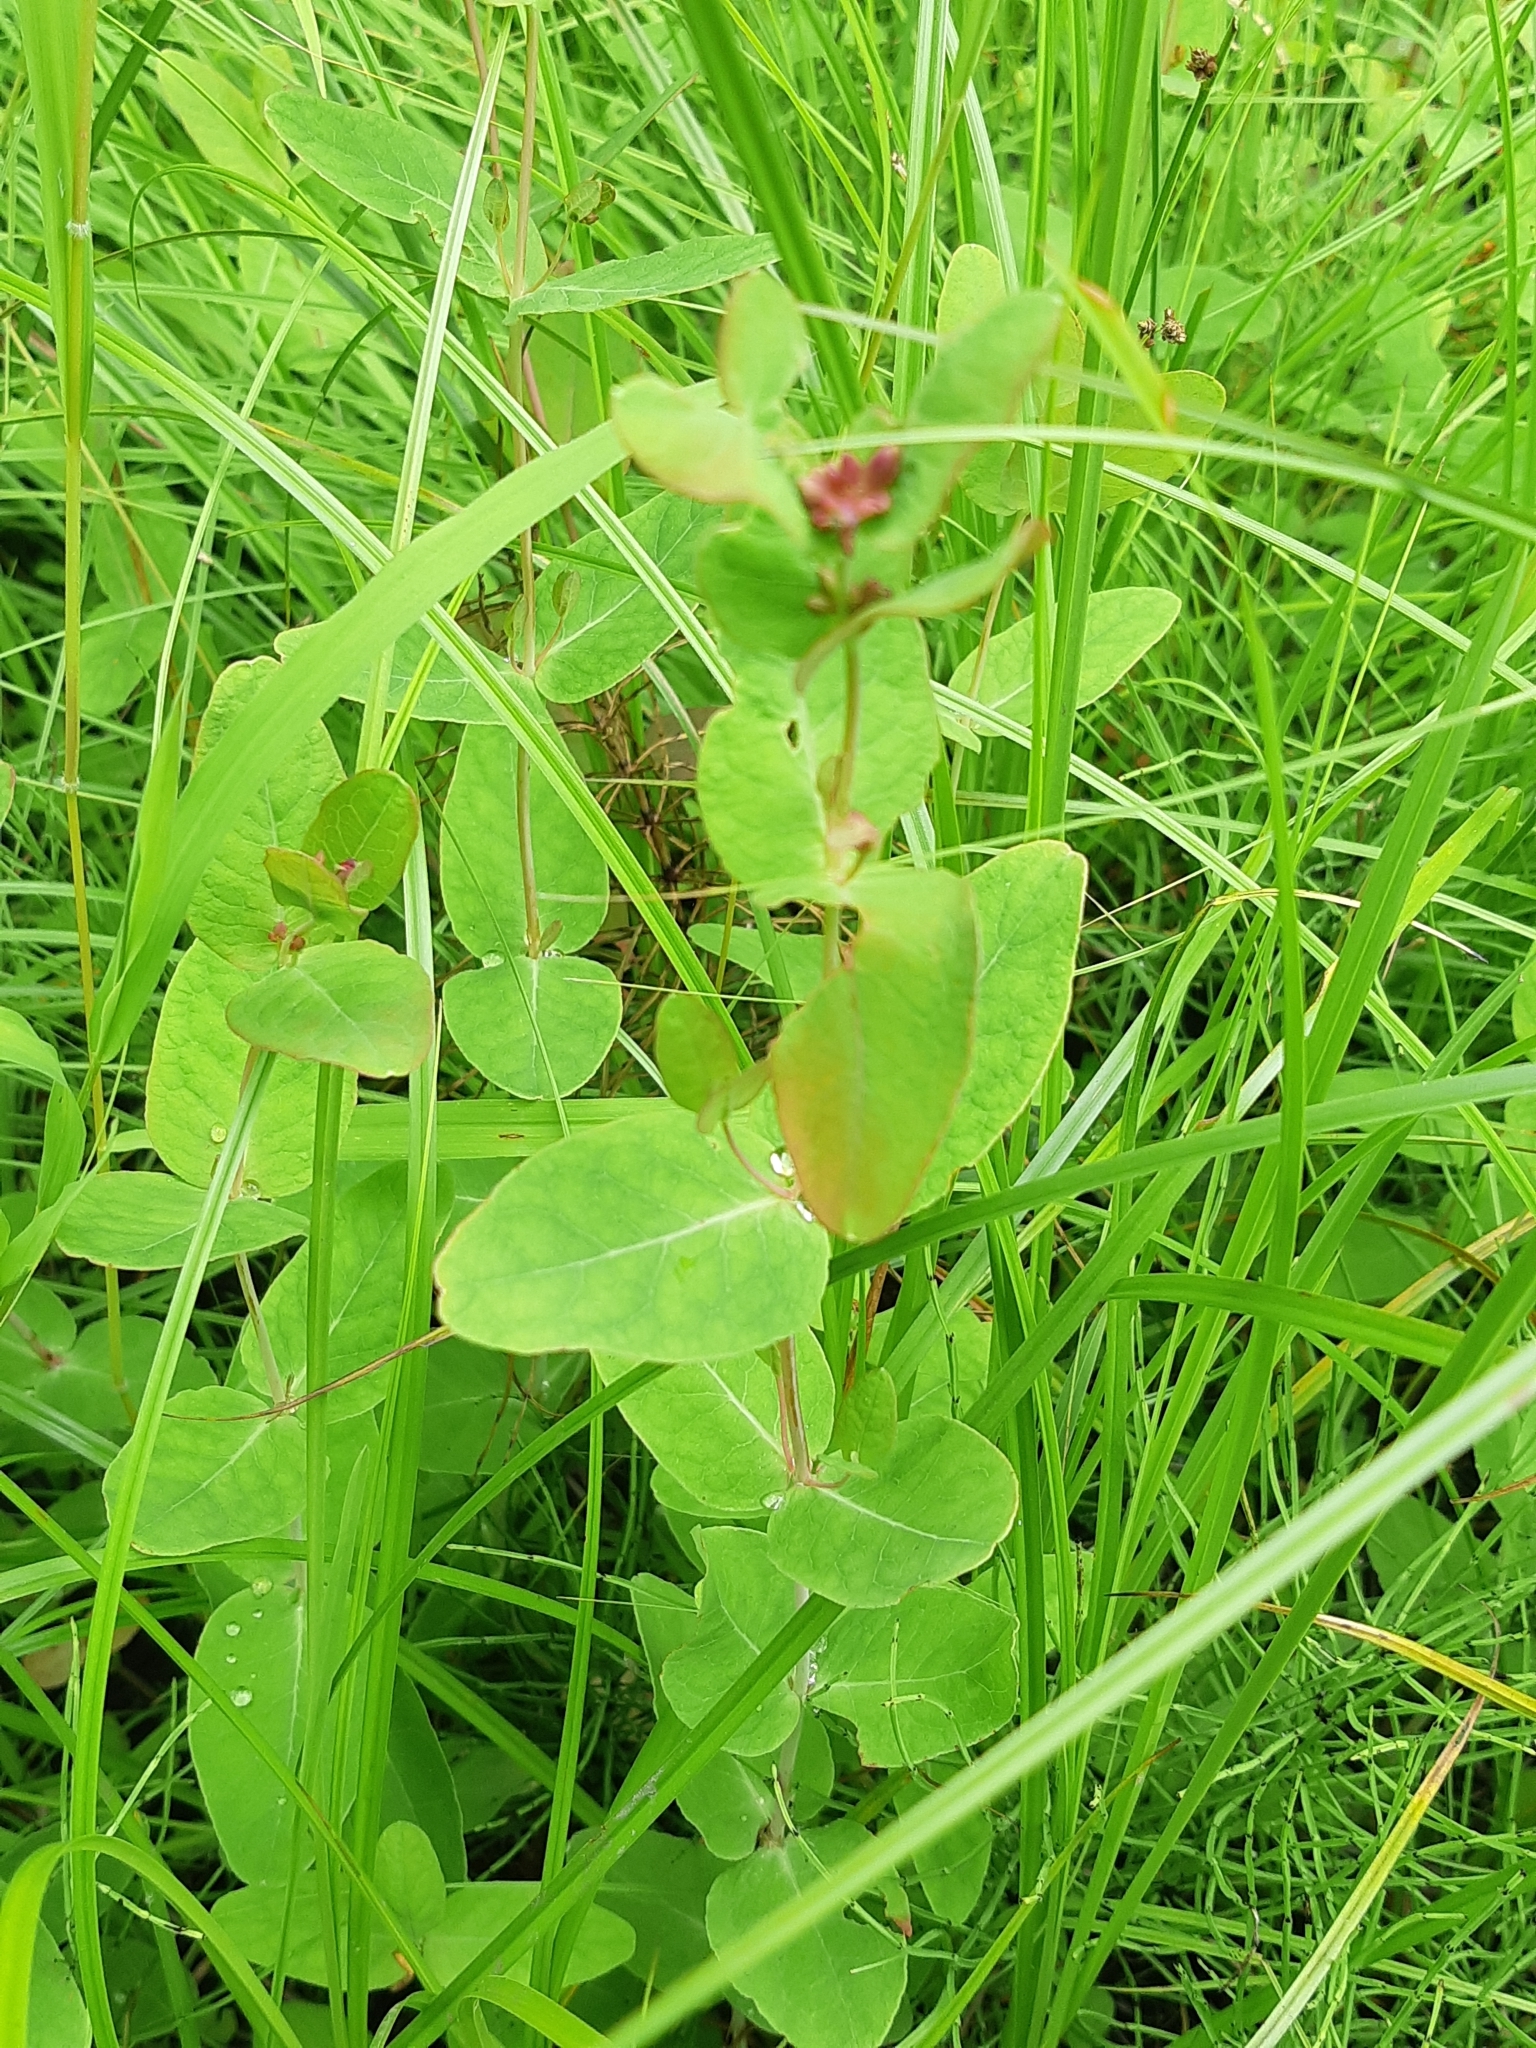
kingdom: Plantae
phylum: Tracheophyta
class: Magnoliopsida
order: Malpighiales
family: Hypericaceae
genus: Triadenum
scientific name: Triadenum fraseri
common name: Fraser's marsh st. johnswort
